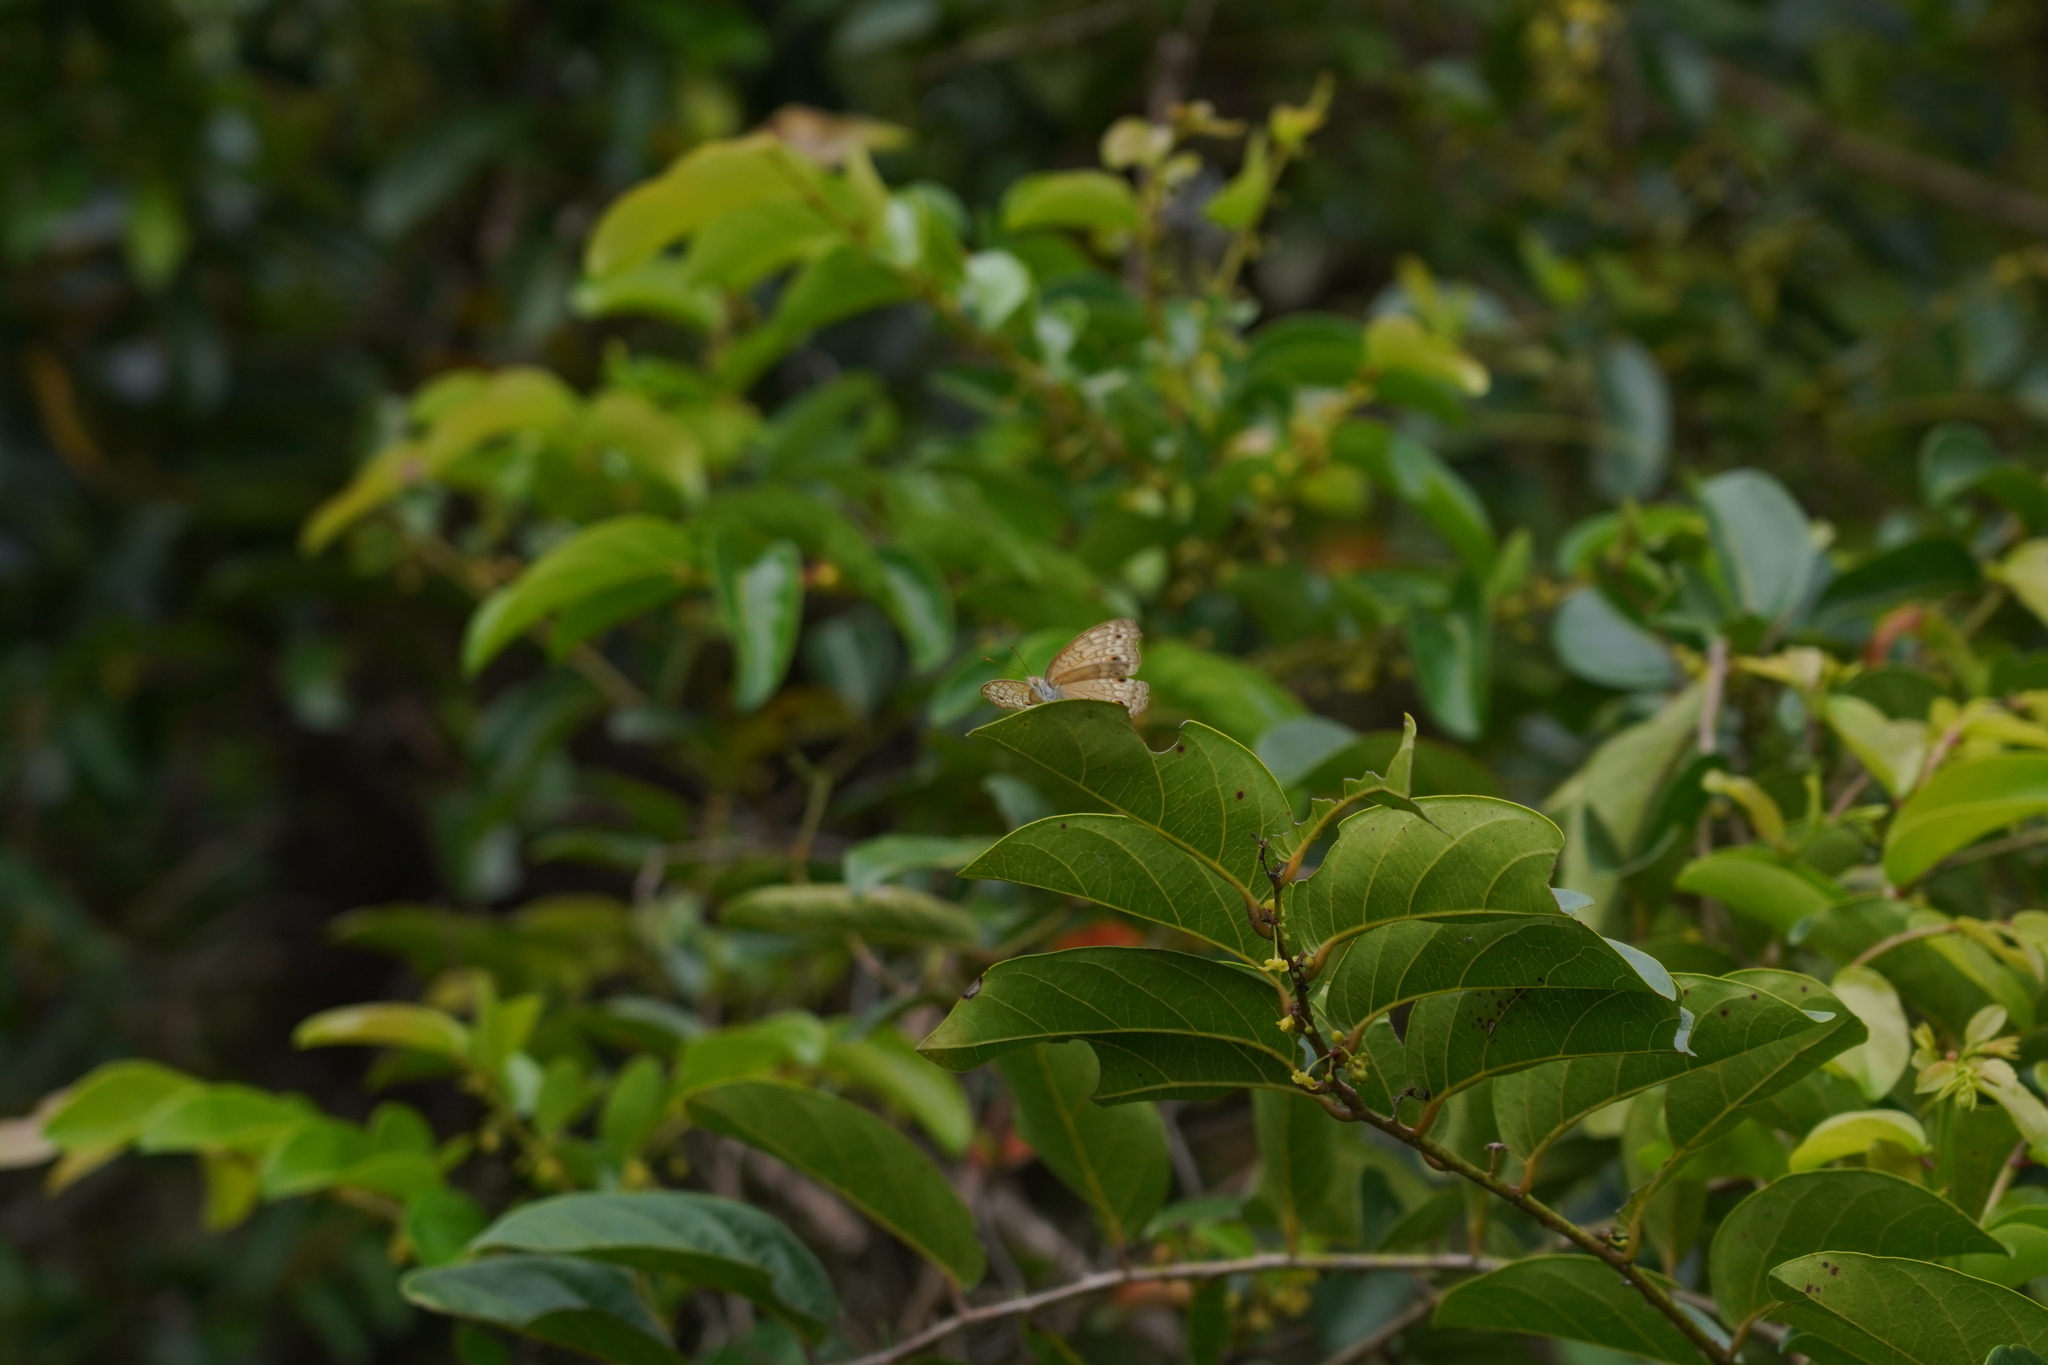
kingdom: Animalia
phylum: Arthropoda
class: Insecta
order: Lepidoptera
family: Nymphalidae
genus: Junonia
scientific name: Junonia atlites
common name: Grey pansy
